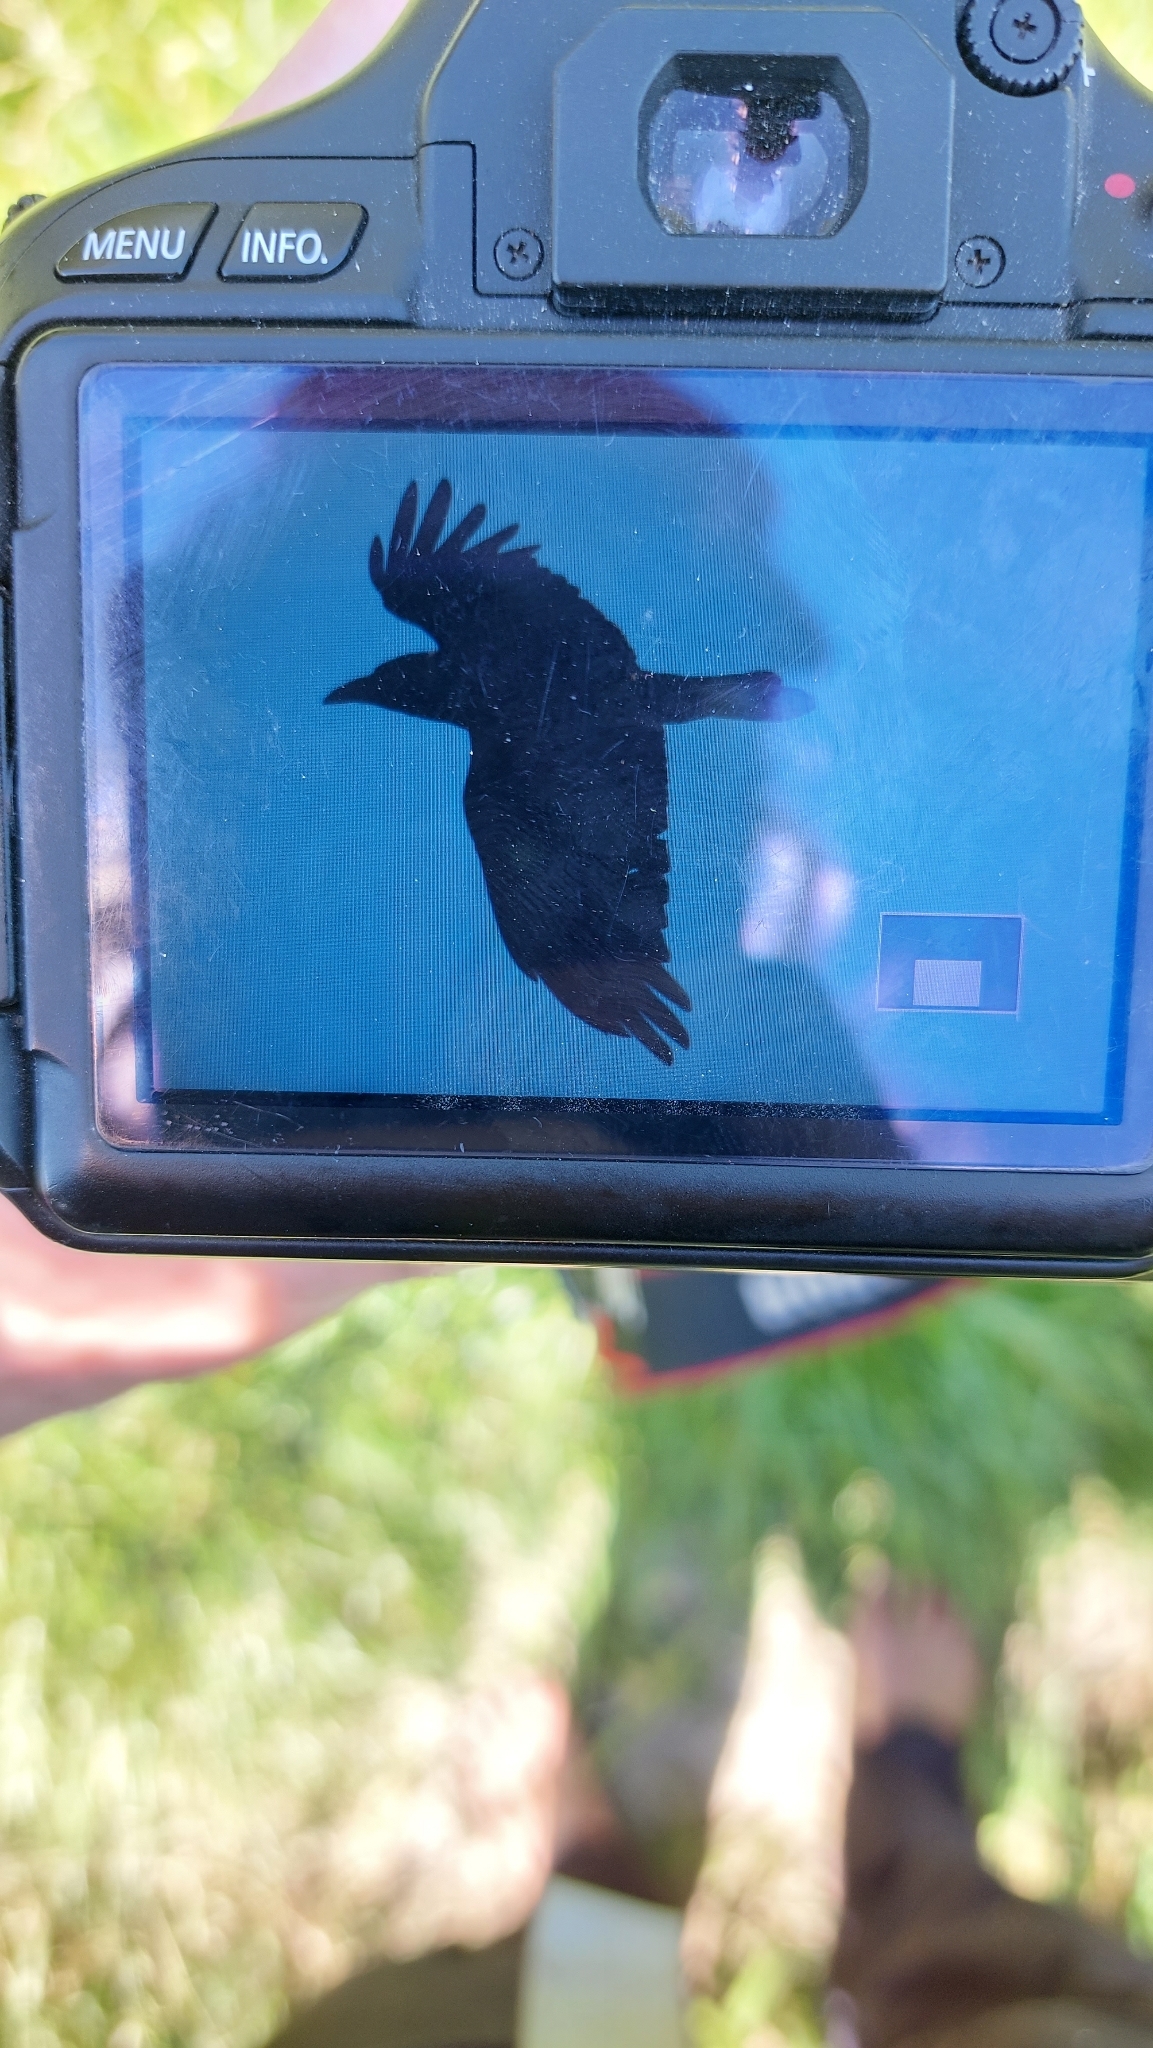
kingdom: Animalia
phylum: Chordata
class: Aves
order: Passeriformes
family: Corvidae
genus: Corvus
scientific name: Corvus
